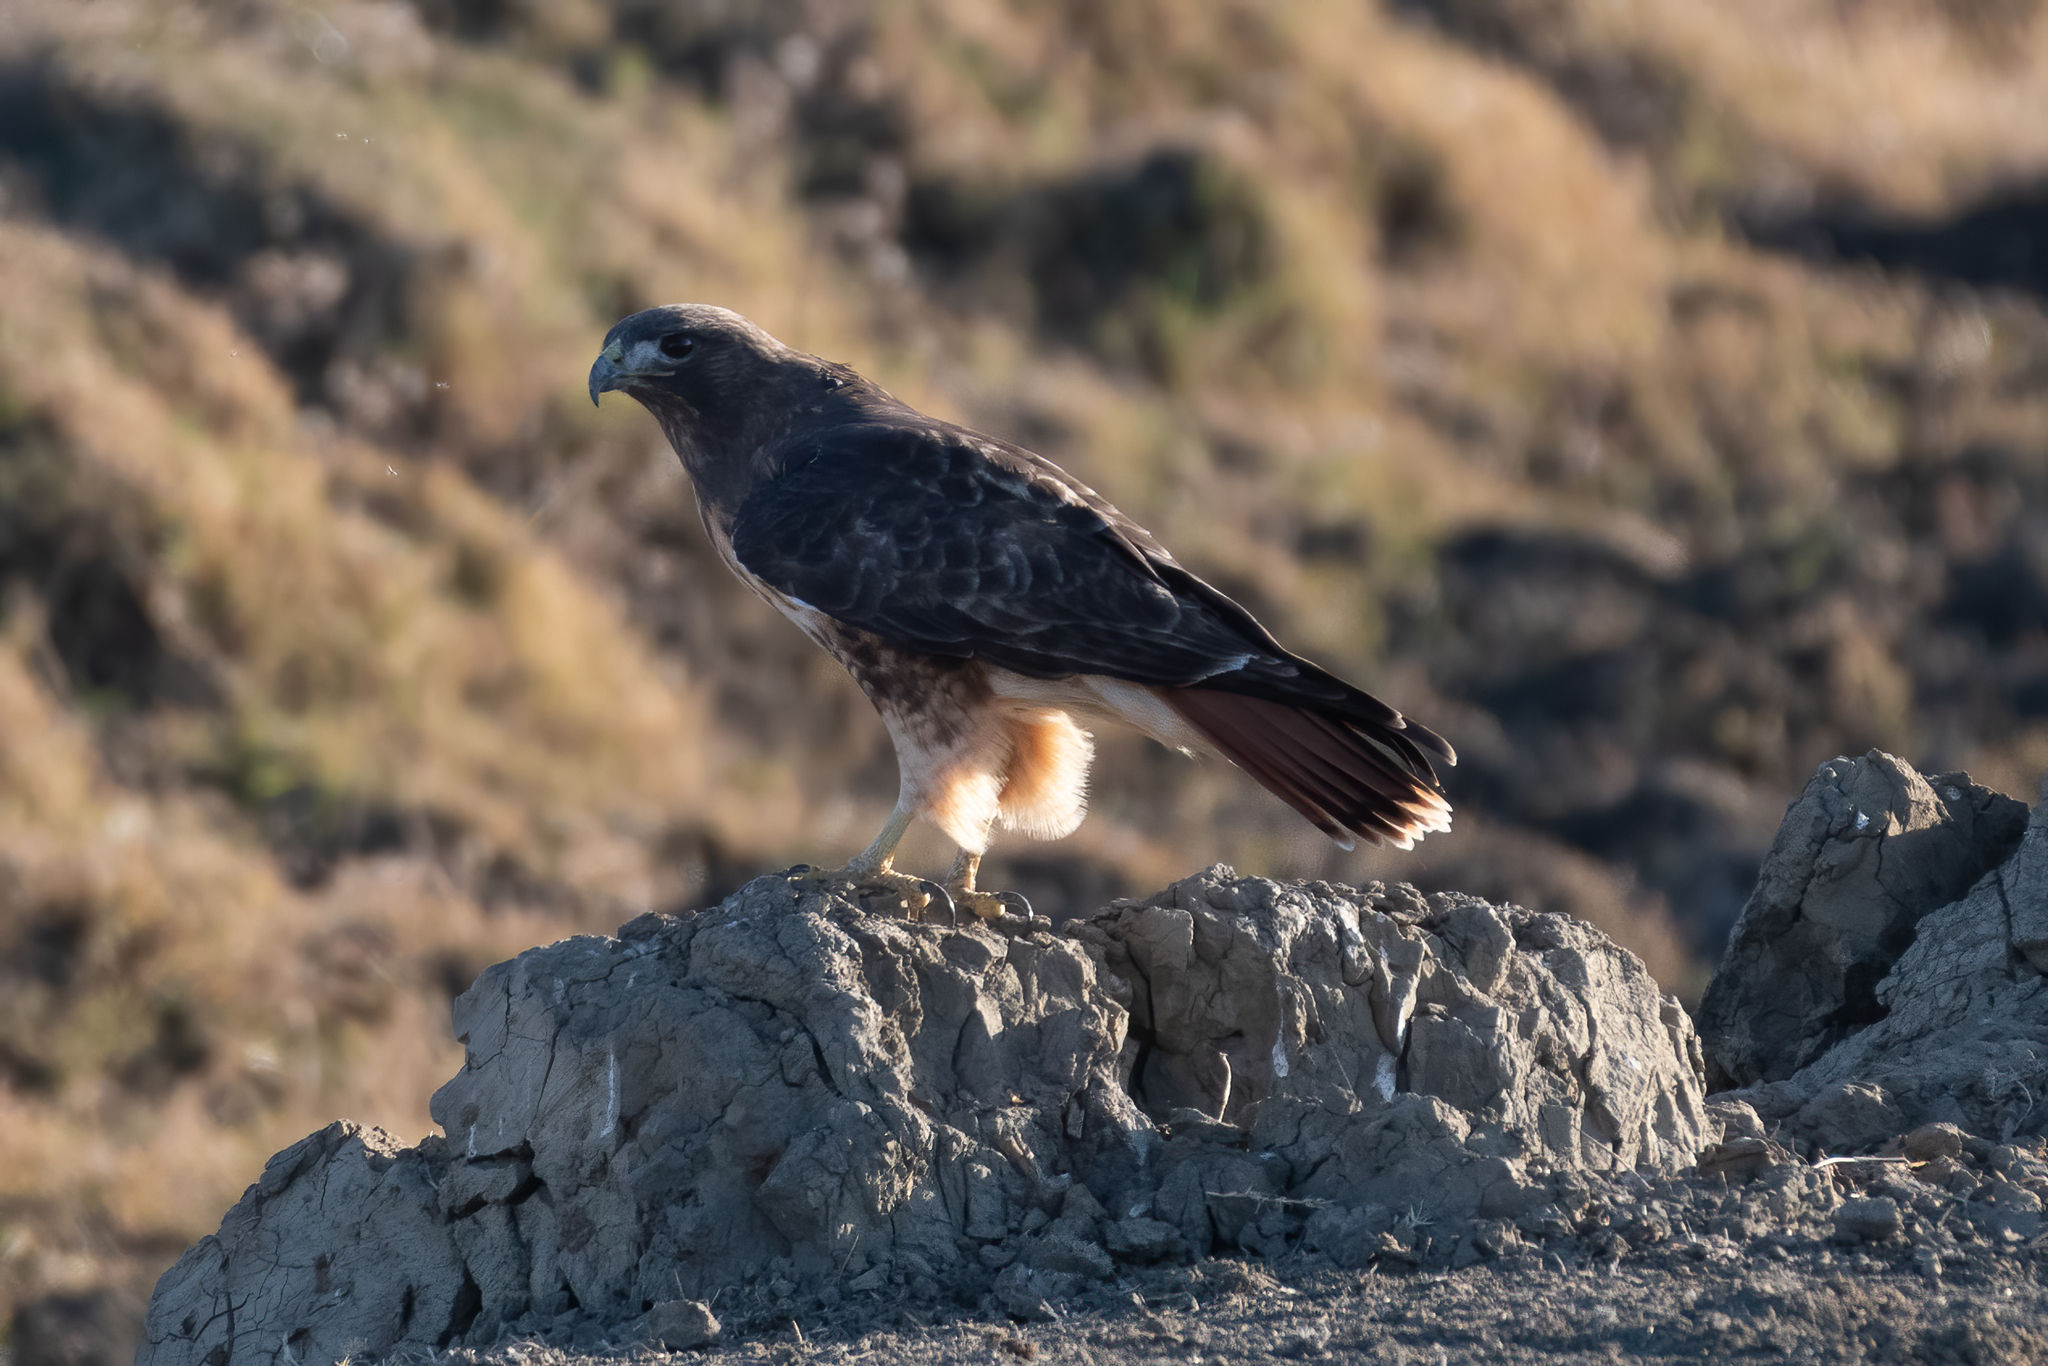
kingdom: Animalia
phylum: Chordata
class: Aves
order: Accipitriformes
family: Accipitridae
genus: Buteo
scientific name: Buteo jamaicensis
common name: Red-tailed hawk
